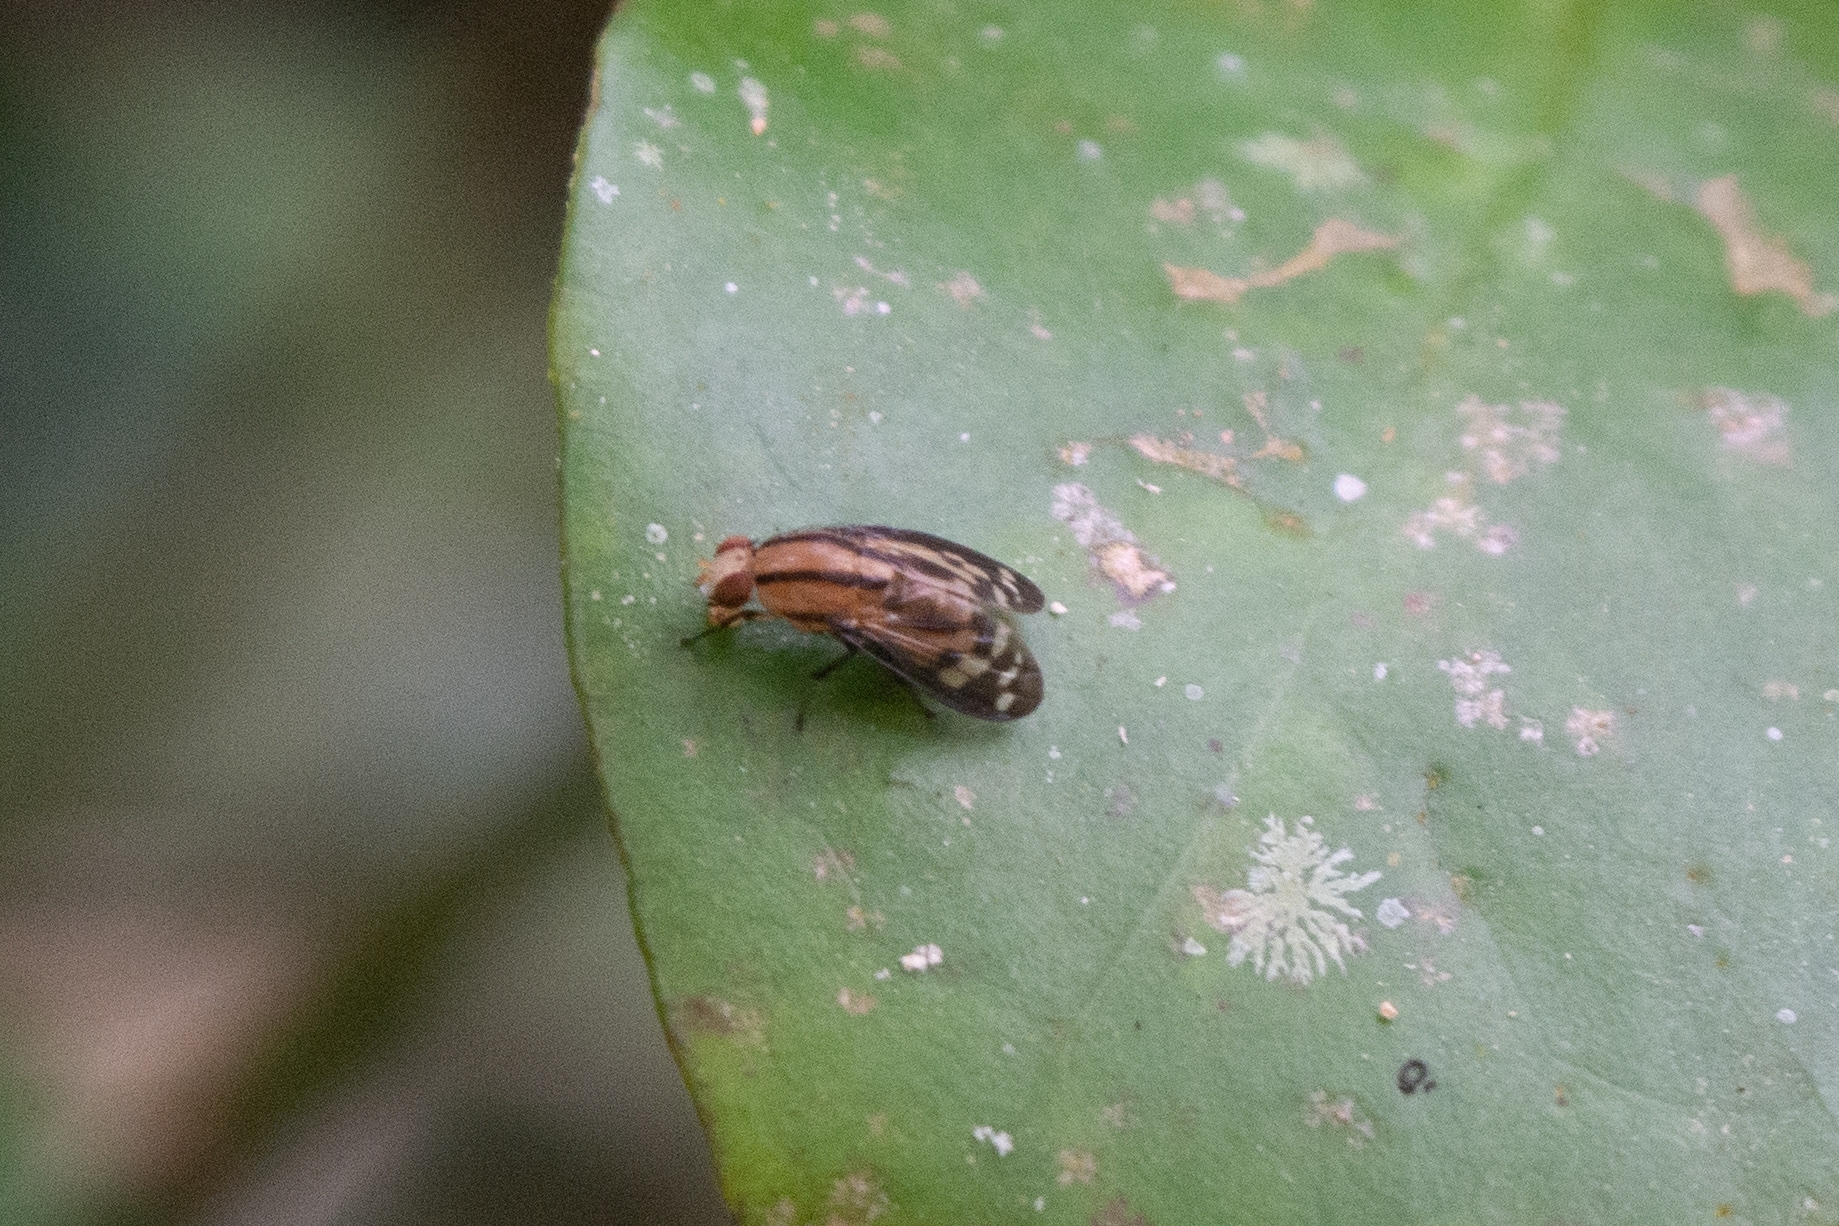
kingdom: Animalia
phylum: Arthropoda
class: Insecta
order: Diptera
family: Lauxaniidae
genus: Setulina
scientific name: Setulina geminata
